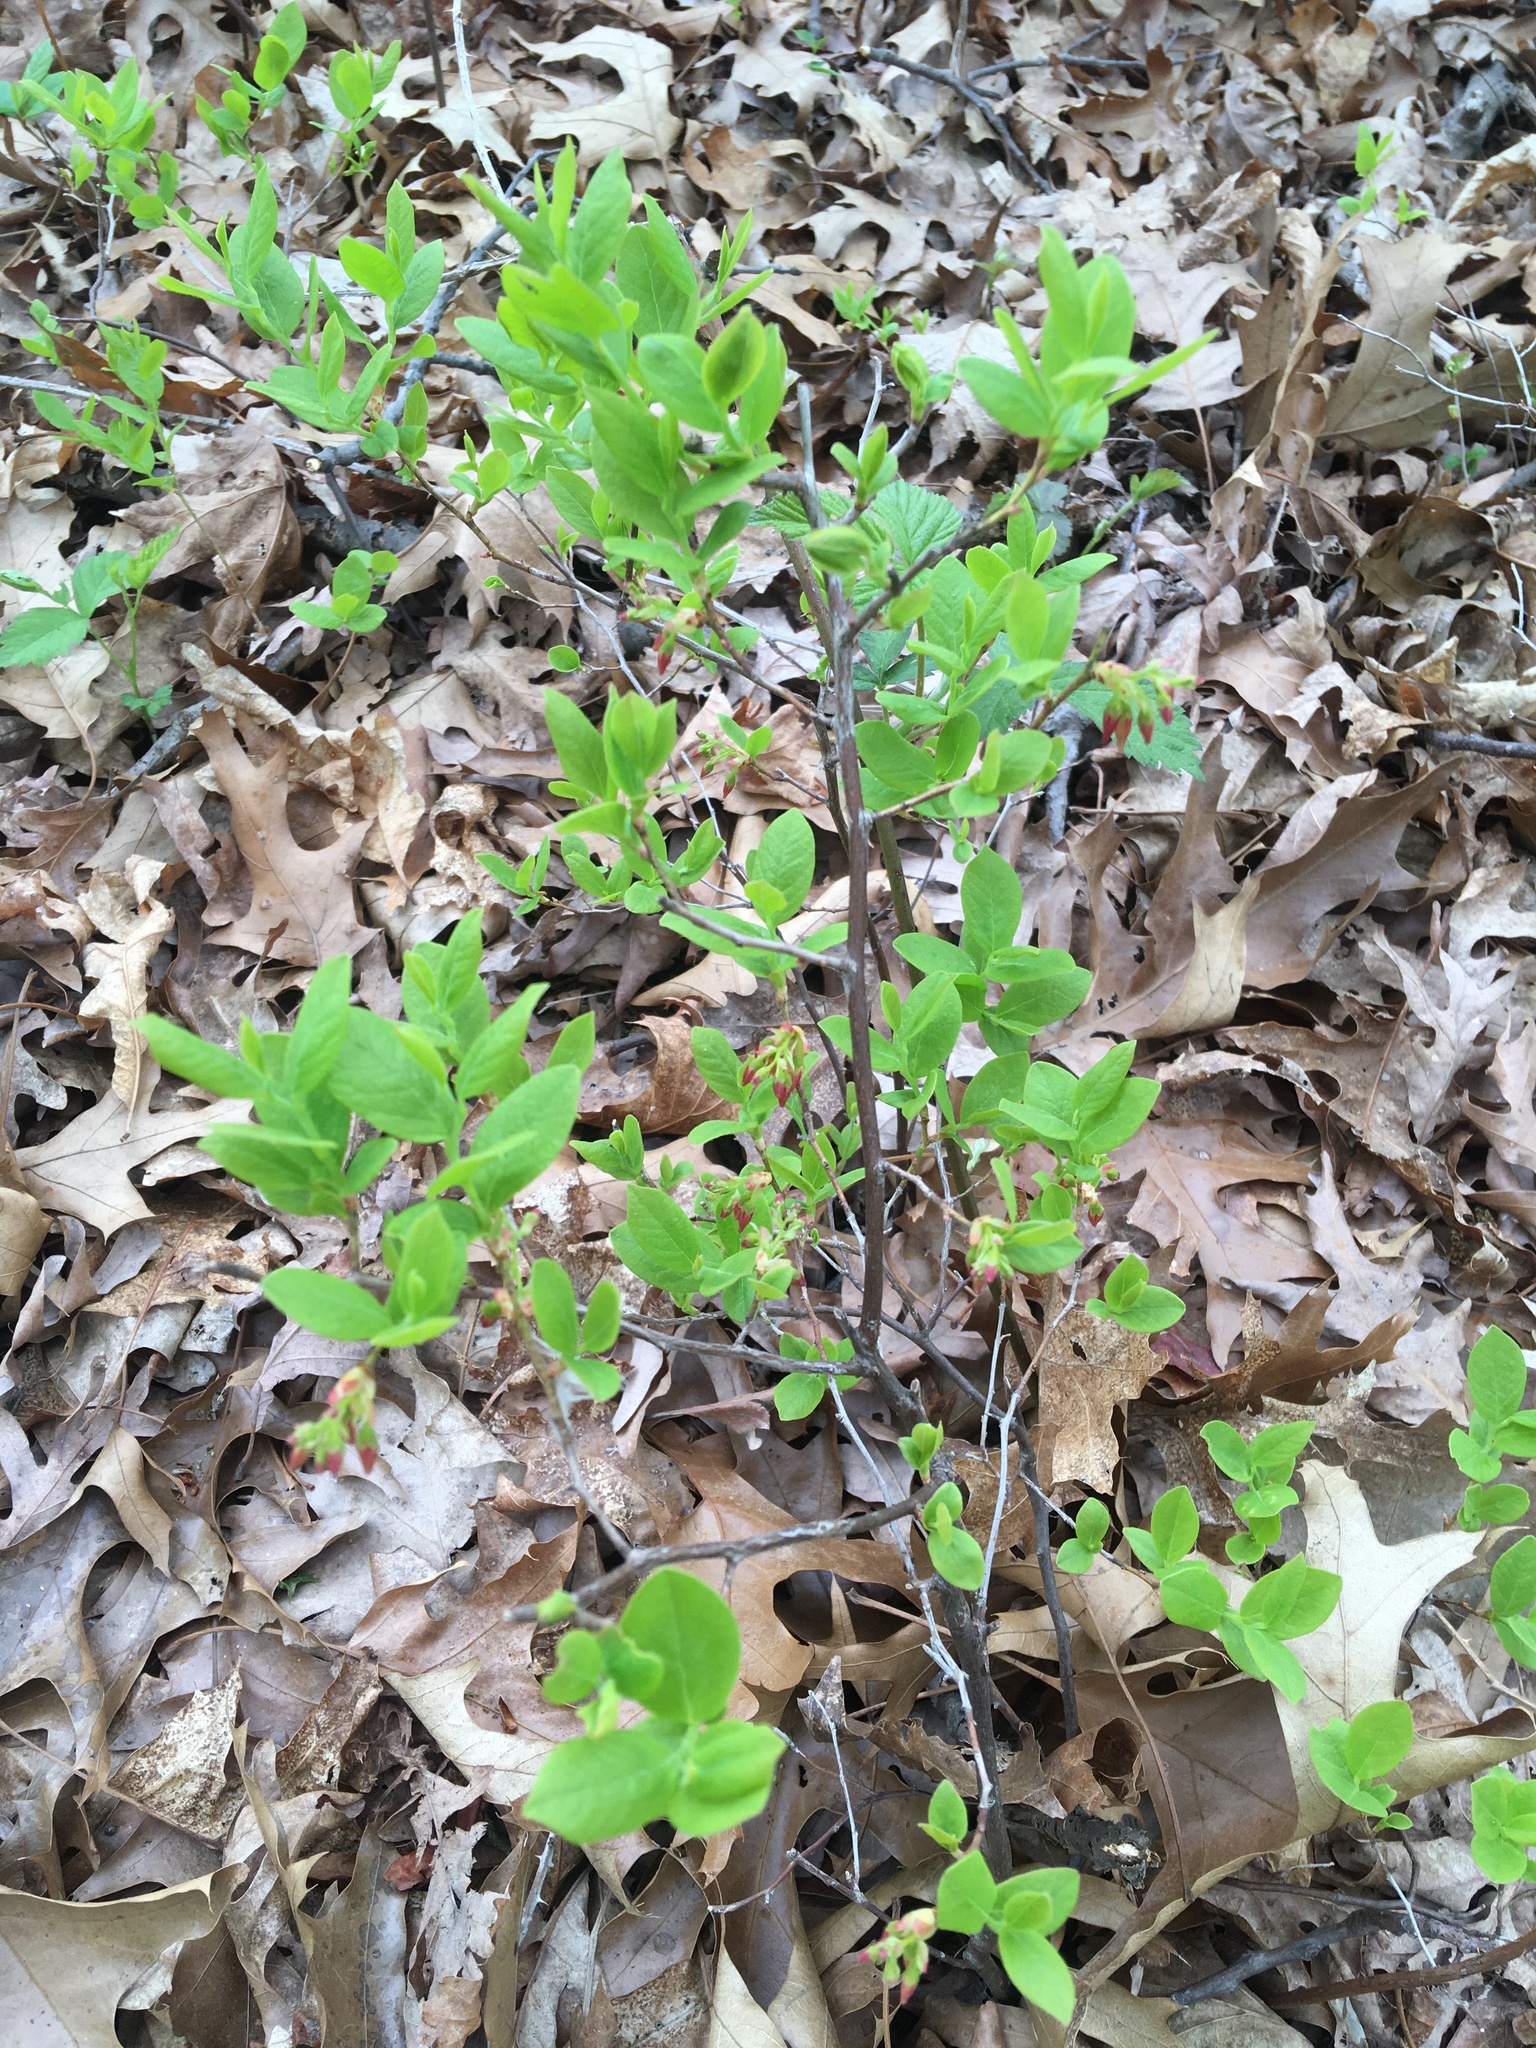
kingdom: Plantae
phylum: Tracheophyta
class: Magnoliopsida
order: Ericales
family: Ericaceae
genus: Gaylussacia
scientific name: Gaylussacia baccata
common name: Black huckleberry
